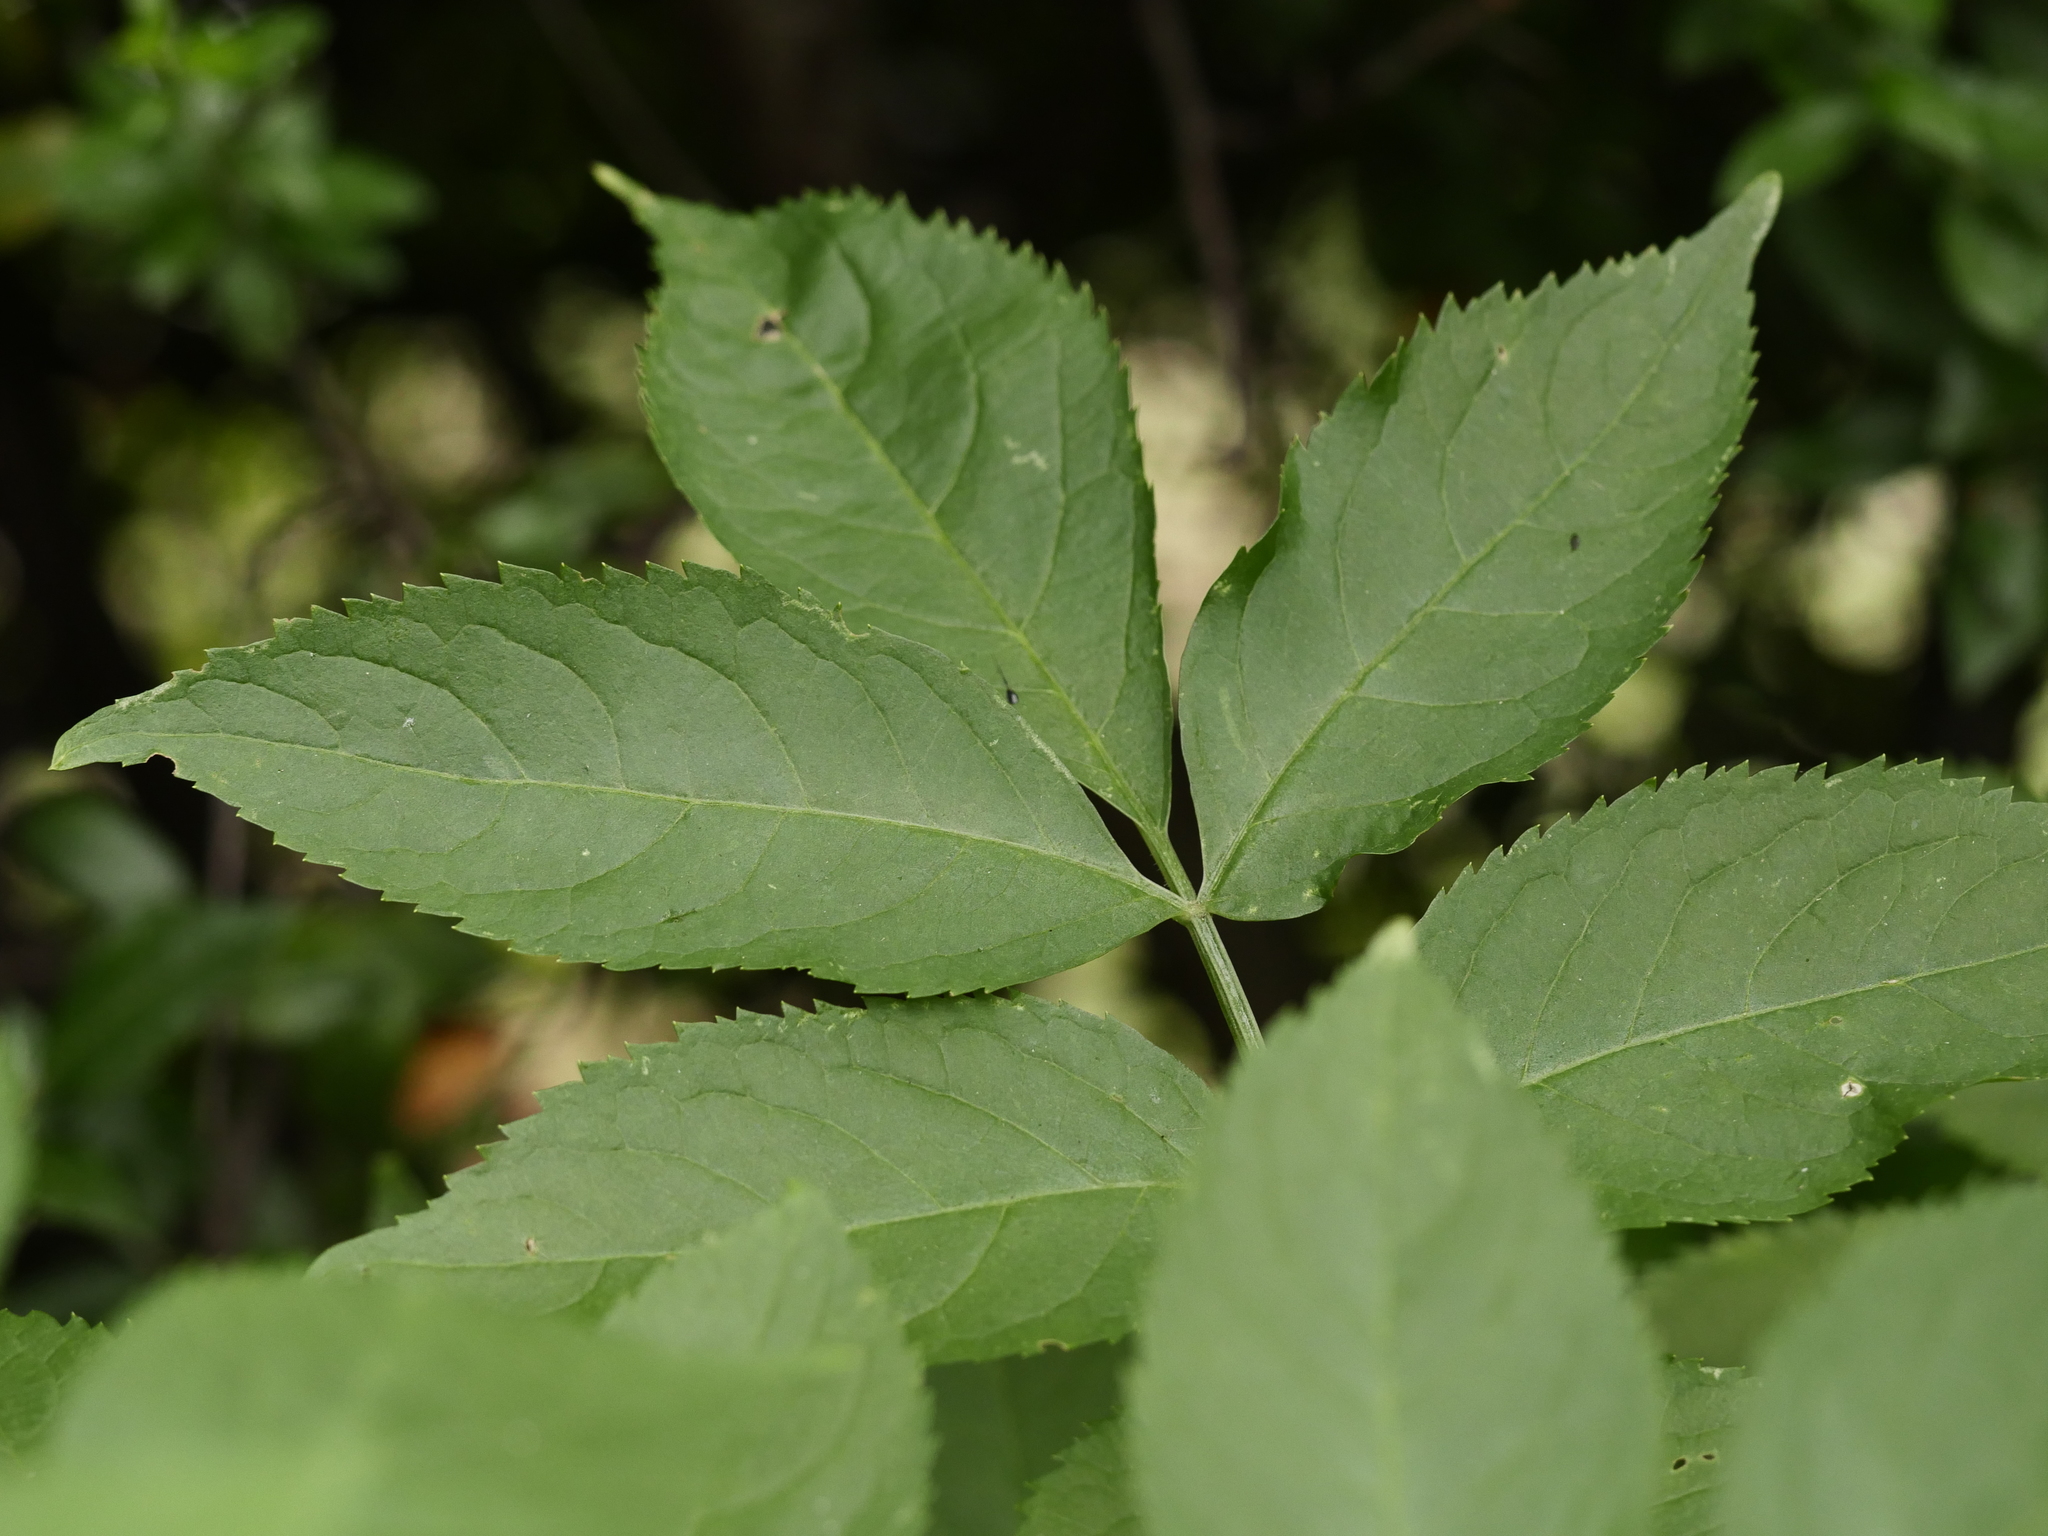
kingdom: Plantae
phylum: Tracheophyta
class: Magnoliopsida
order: Dipsacales
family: Viburnaceae
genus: Sambucus
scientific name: Sambucus nigra
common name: Elder
